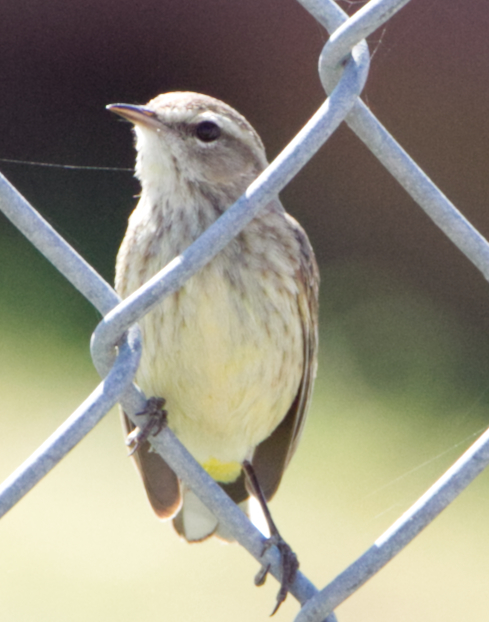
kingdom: Animalia
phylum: Chordata
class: Aves
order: Passeriformes
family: Parulidae
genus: Setophaga
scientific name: Setophaga palmarum
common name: Palm warbler
